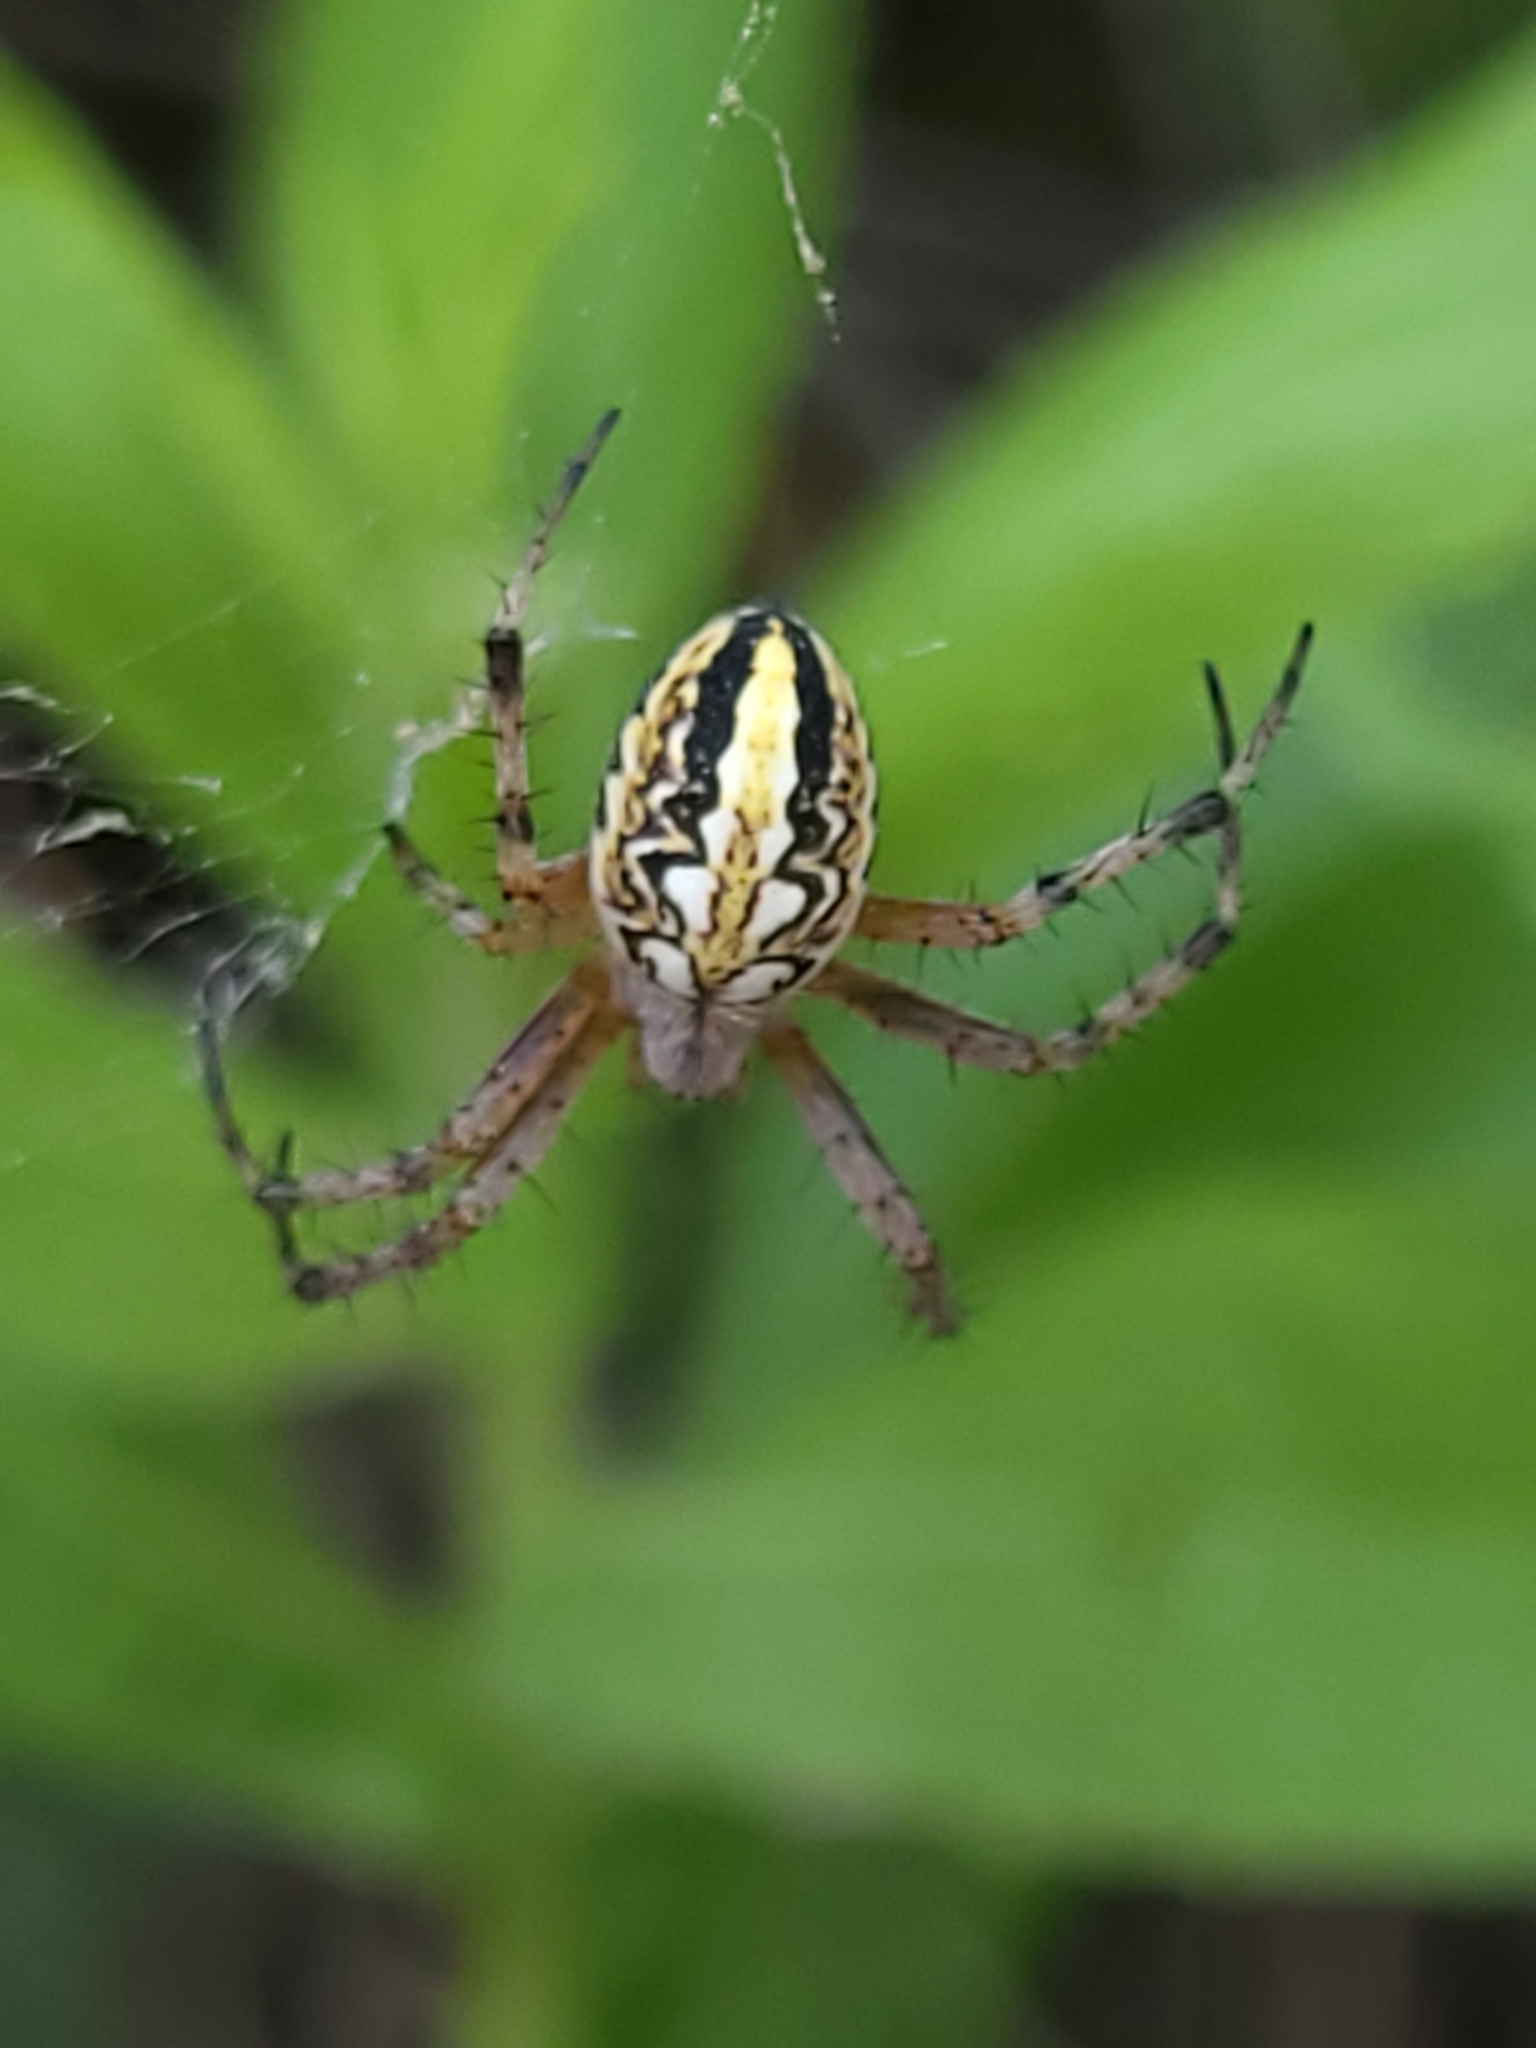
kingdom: Animalia
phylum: Arthropoda
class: Arachnida
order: Araneae
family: Araneidae
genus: Neoscona
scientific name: Neoscona adianta
